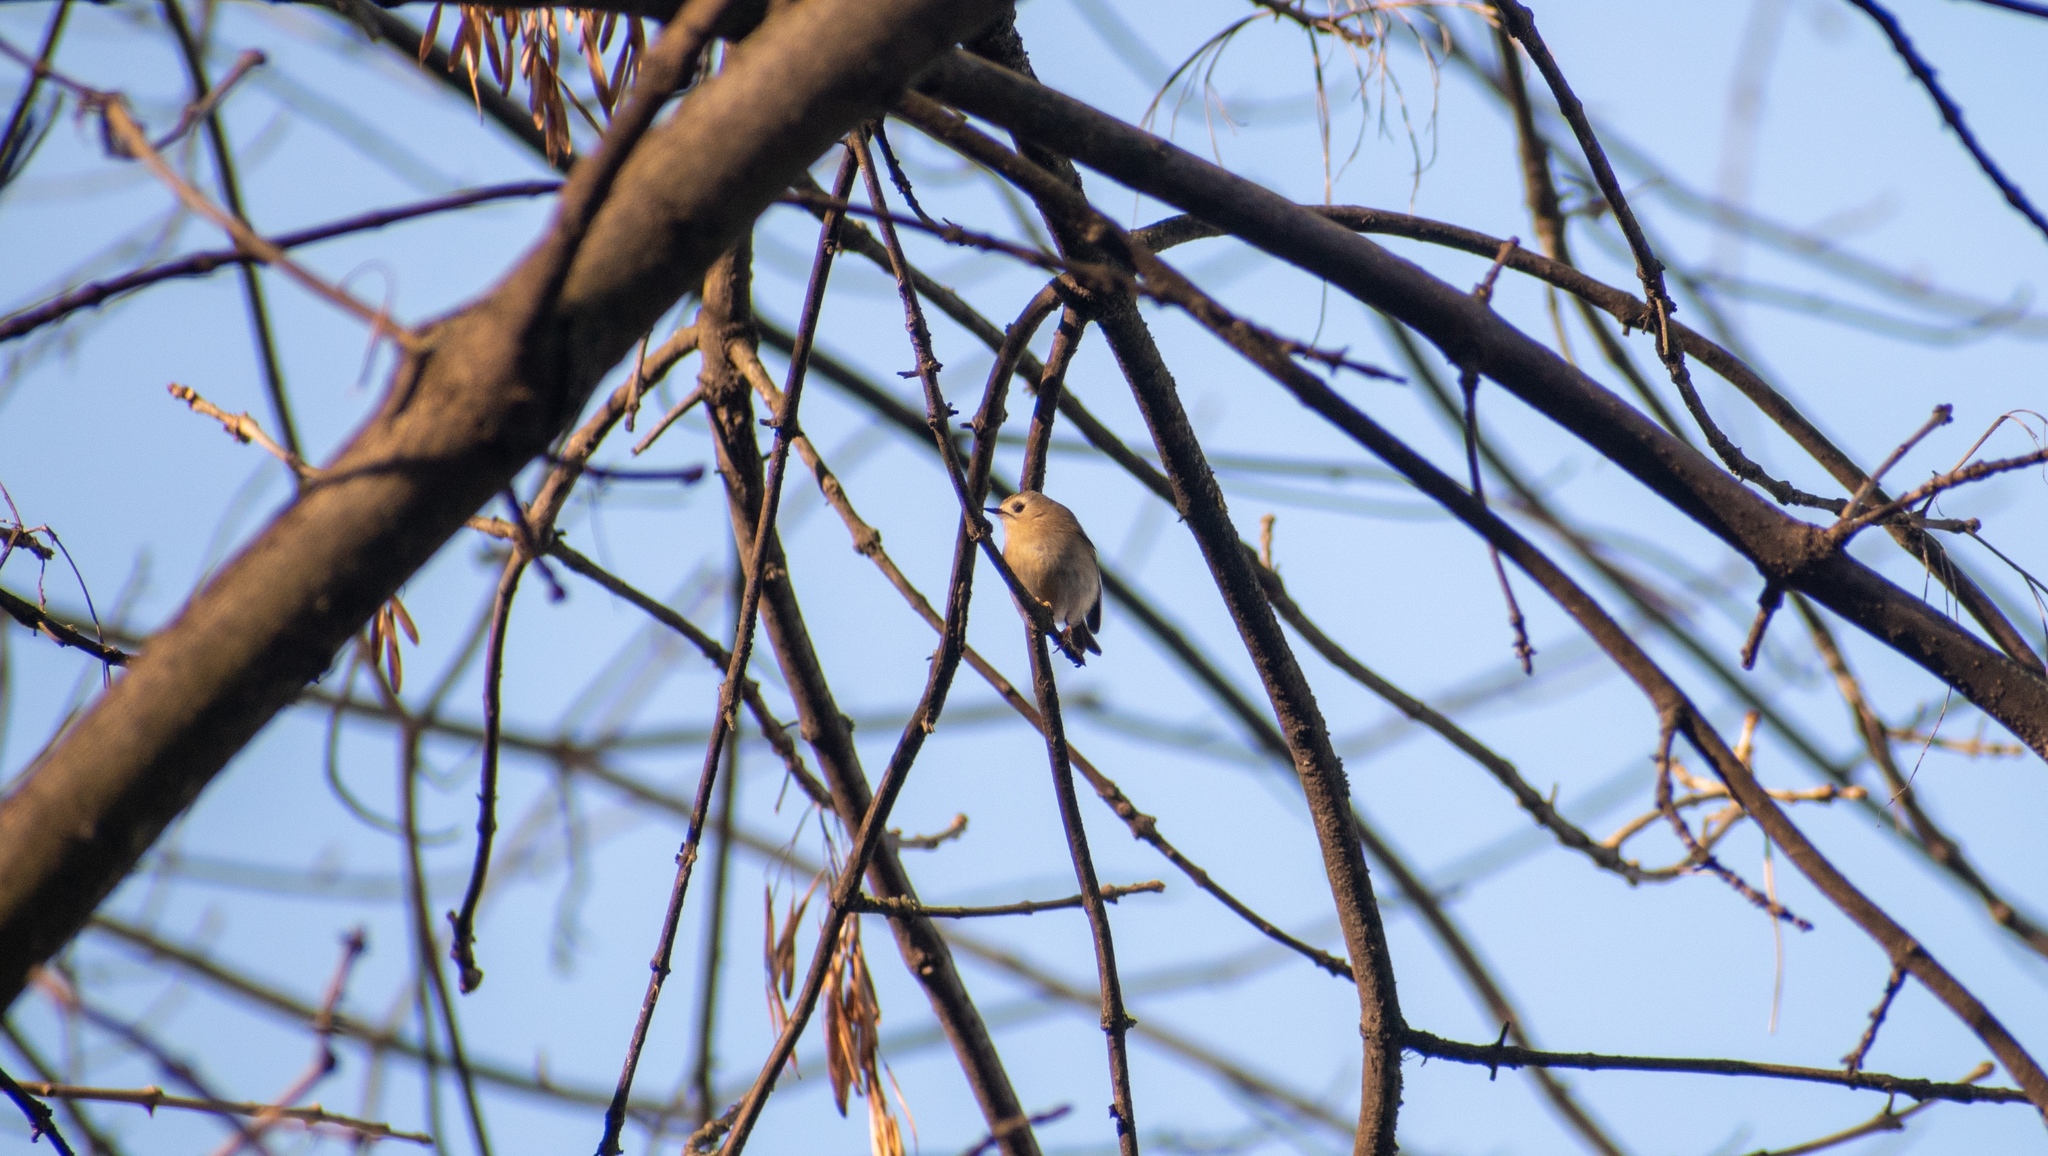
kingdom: Animalia
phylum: Chordata
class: Aves
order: Passeriformes
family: Regulidae
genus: Regulus
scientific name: Regulus regulus
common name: Goldcrest
